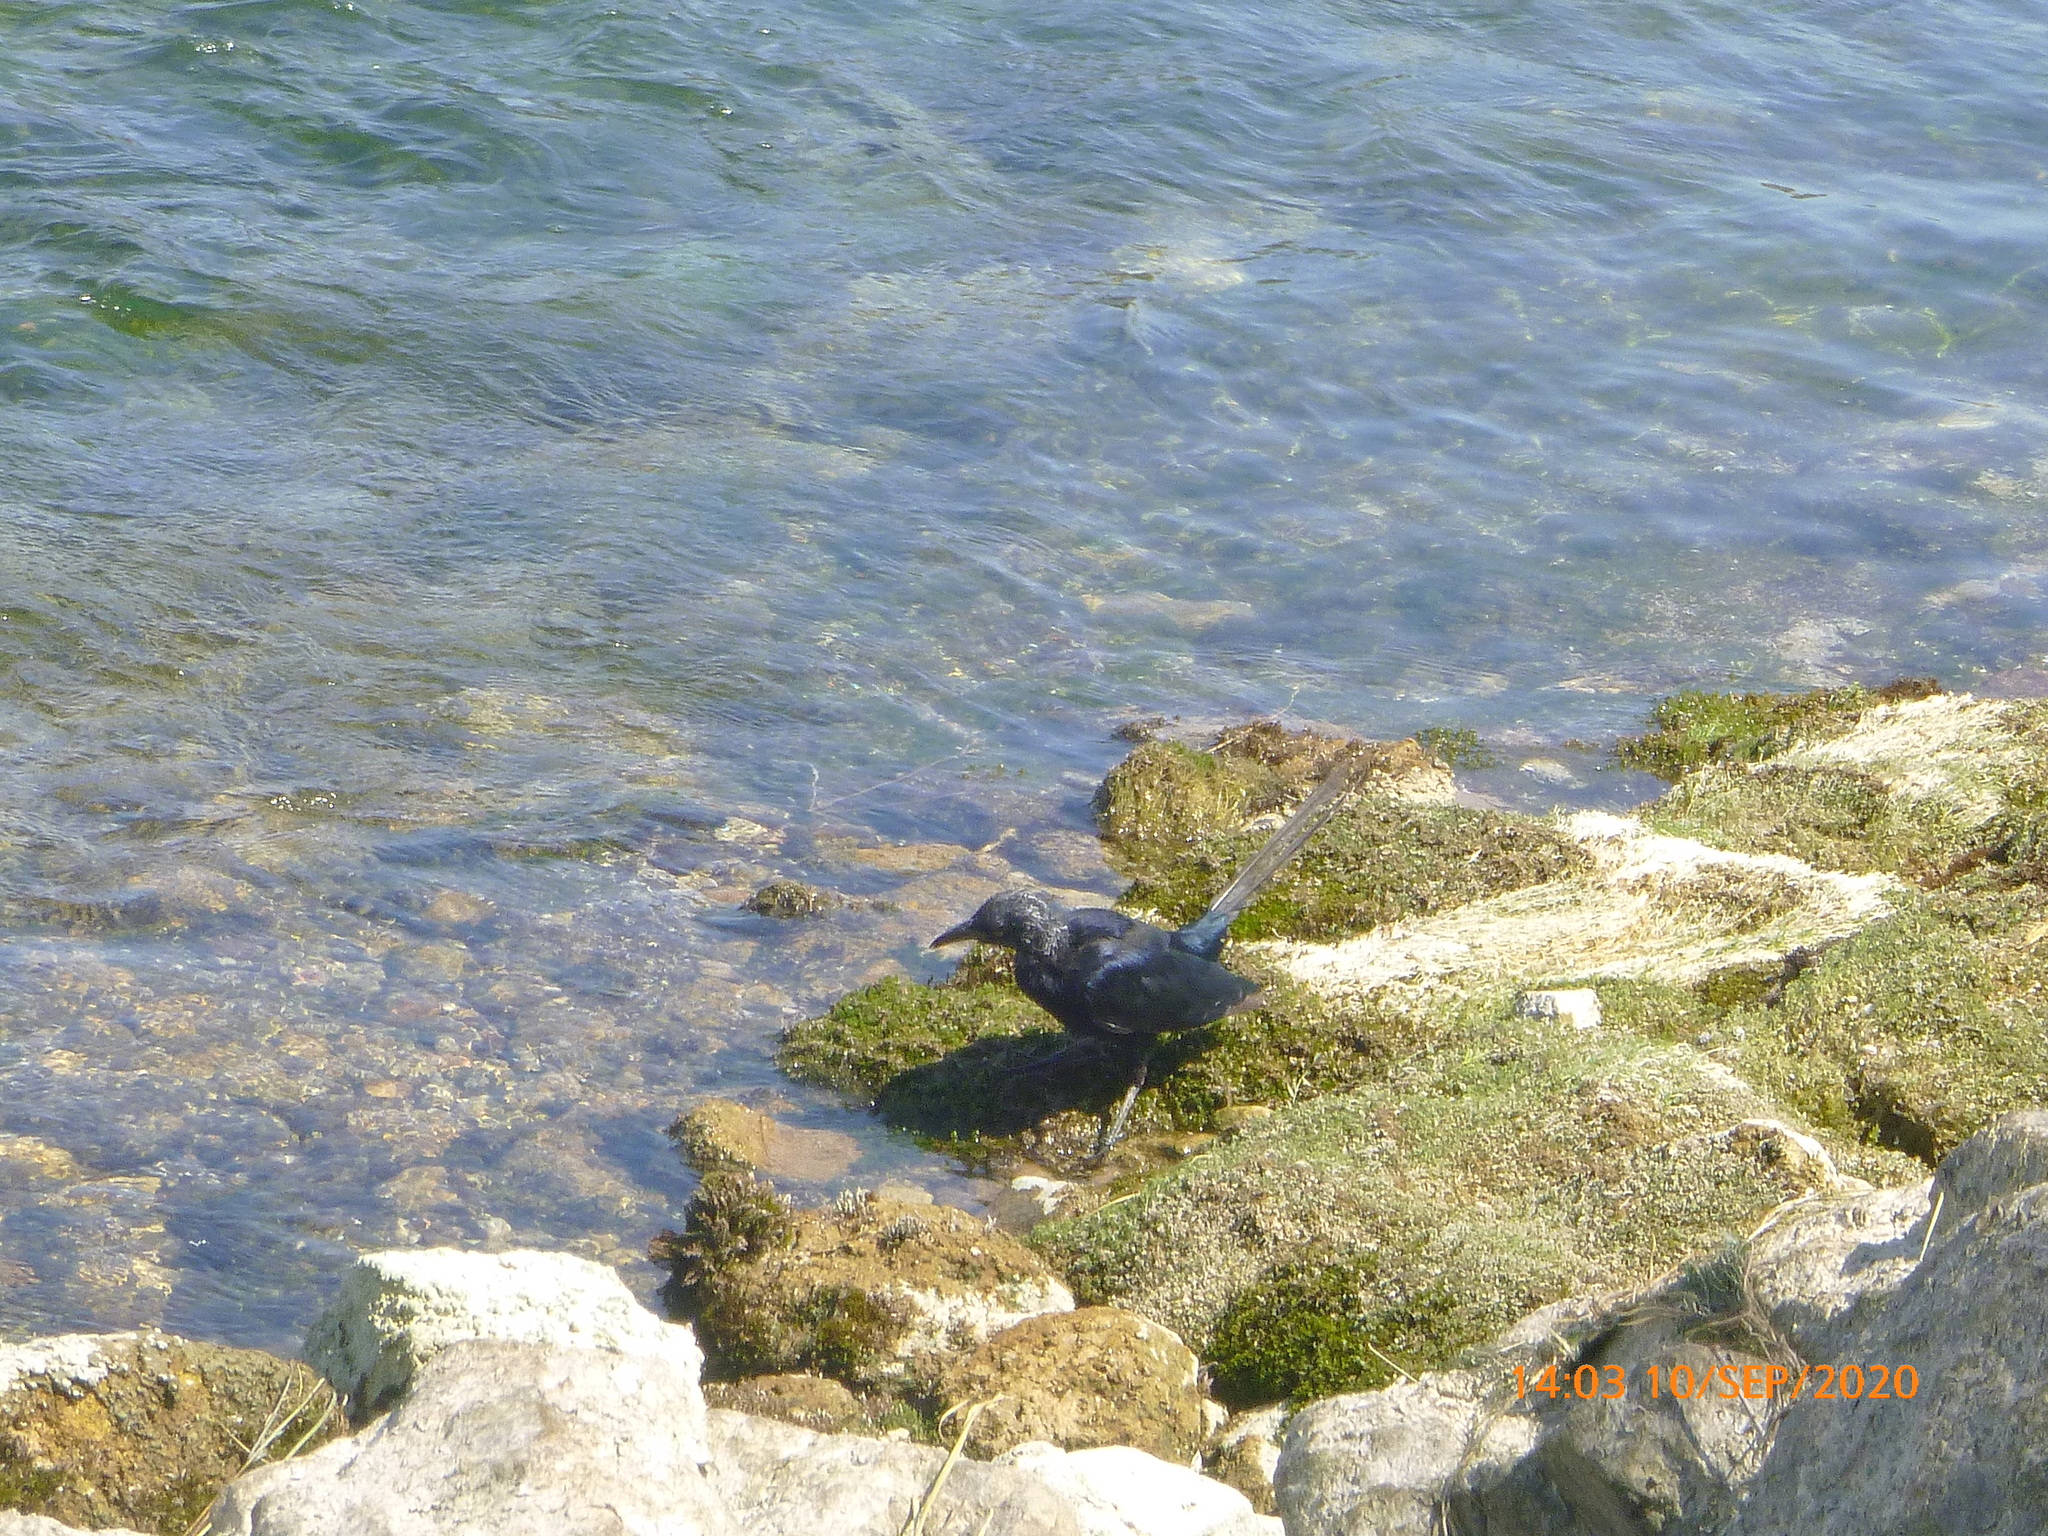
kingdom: Animalia
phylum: Chordata
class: Aves
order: Passeriformes
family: Icteridae
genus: Quiscalus
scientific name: Quiscalus mexicanus
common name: Great-tailed grackle
